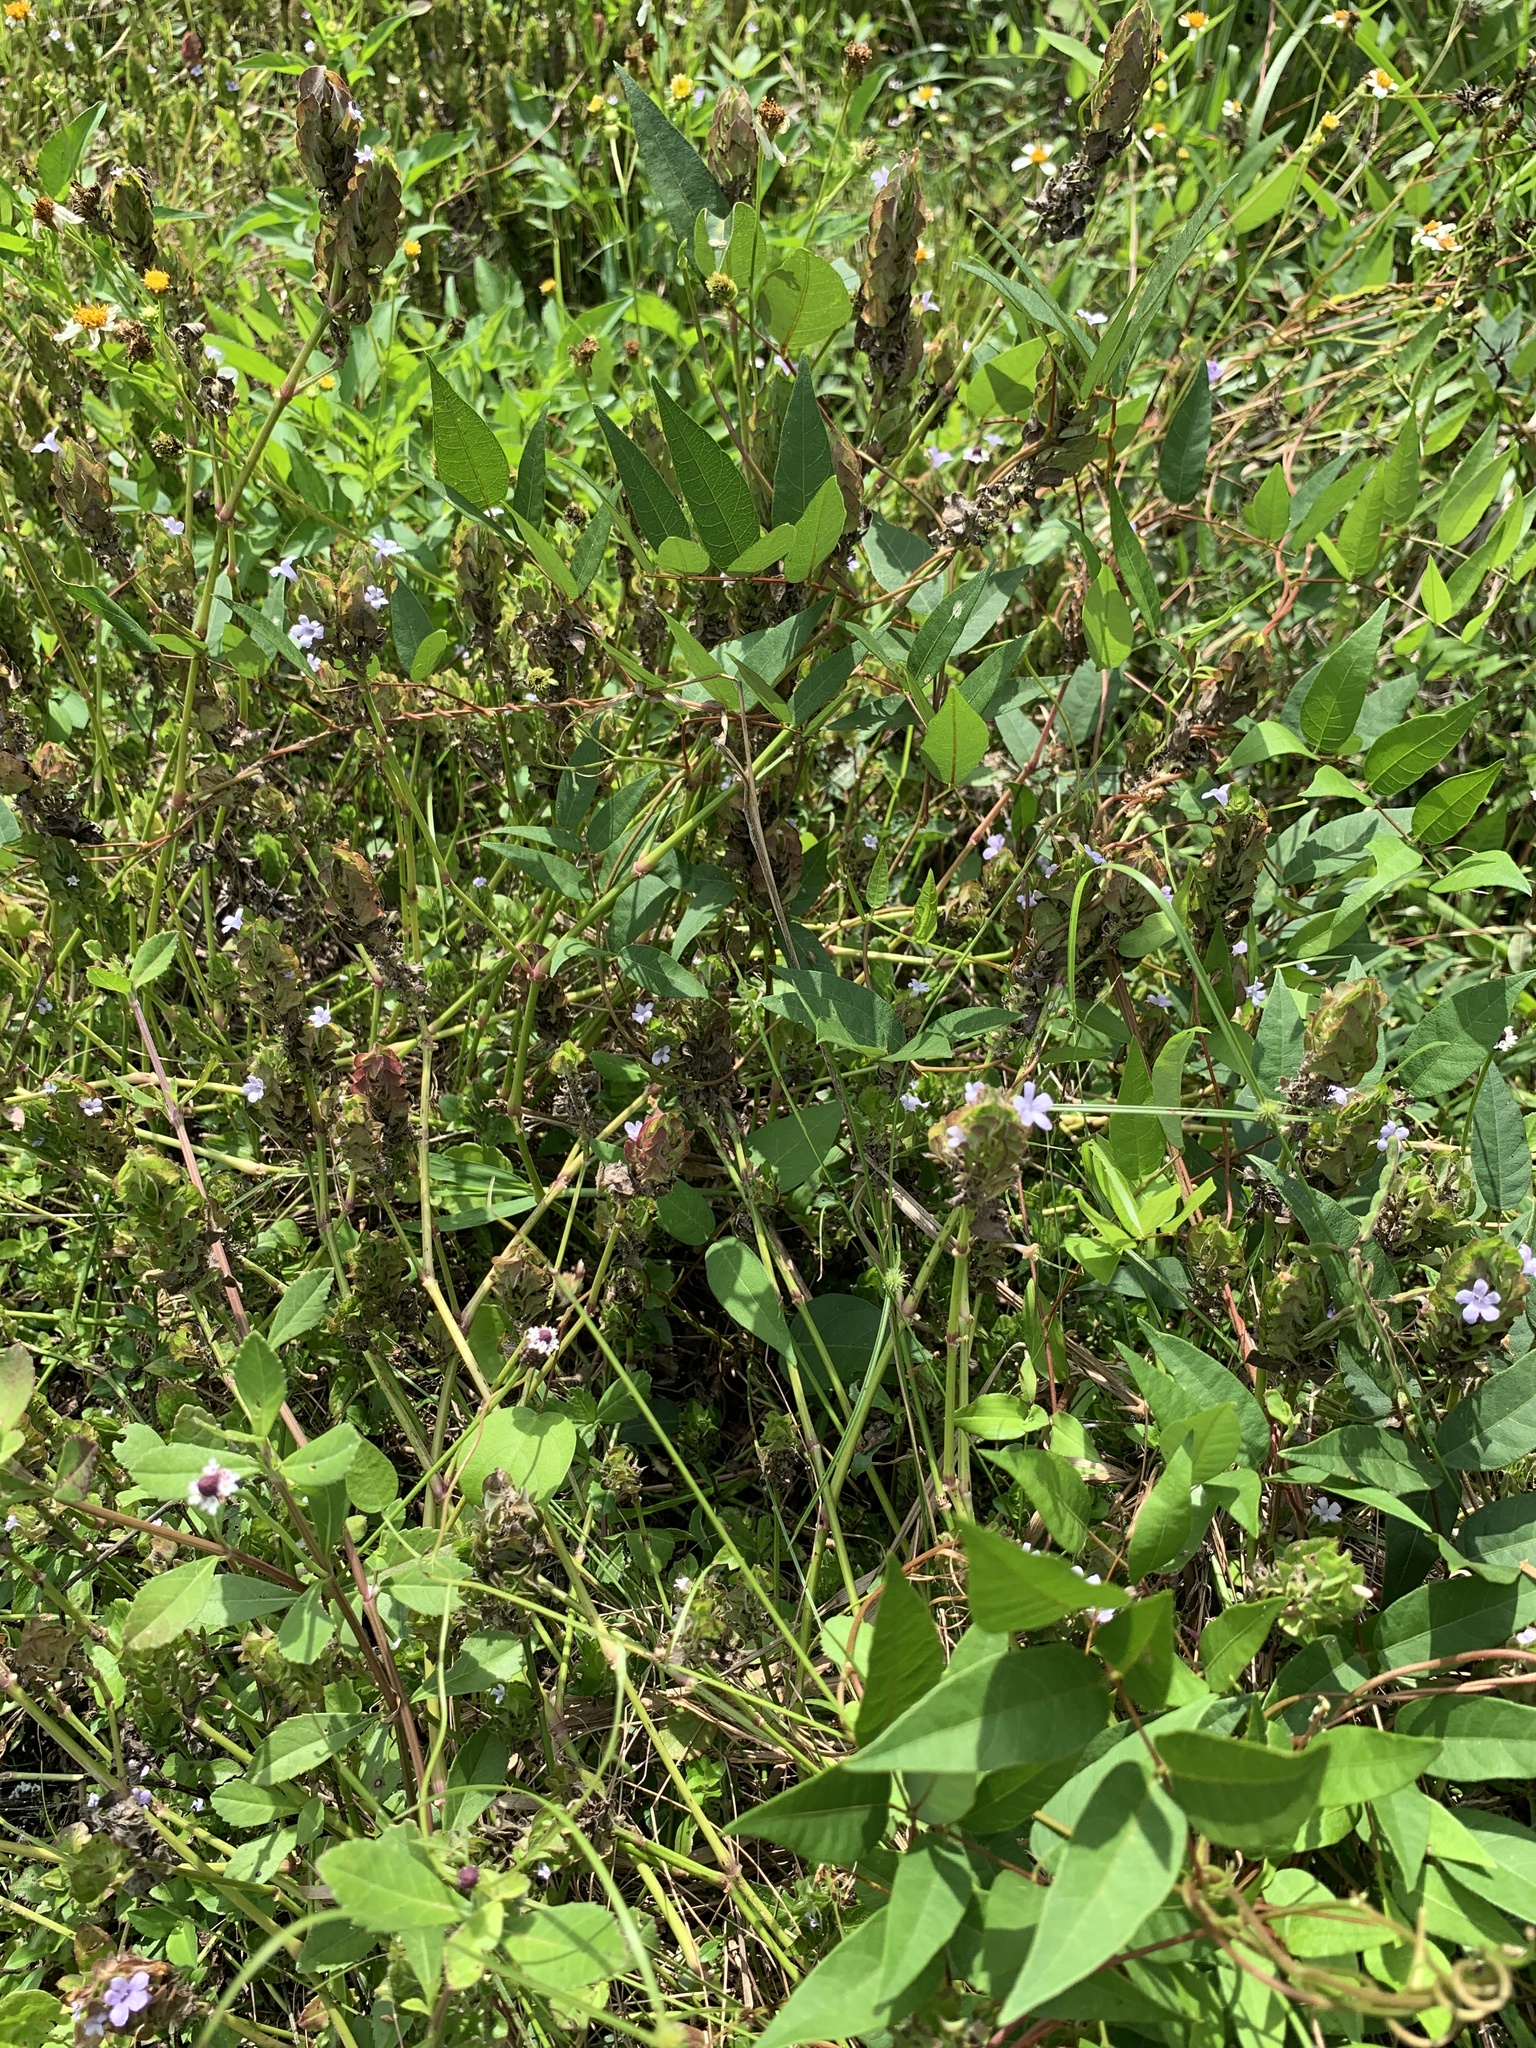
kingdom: Plantae
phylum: Tracheophyta
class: Magnoliopsida
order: Lamiales
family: Acanthaceae
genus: Ruellia
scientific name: Ruellia blechum
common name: Browne's blechum
